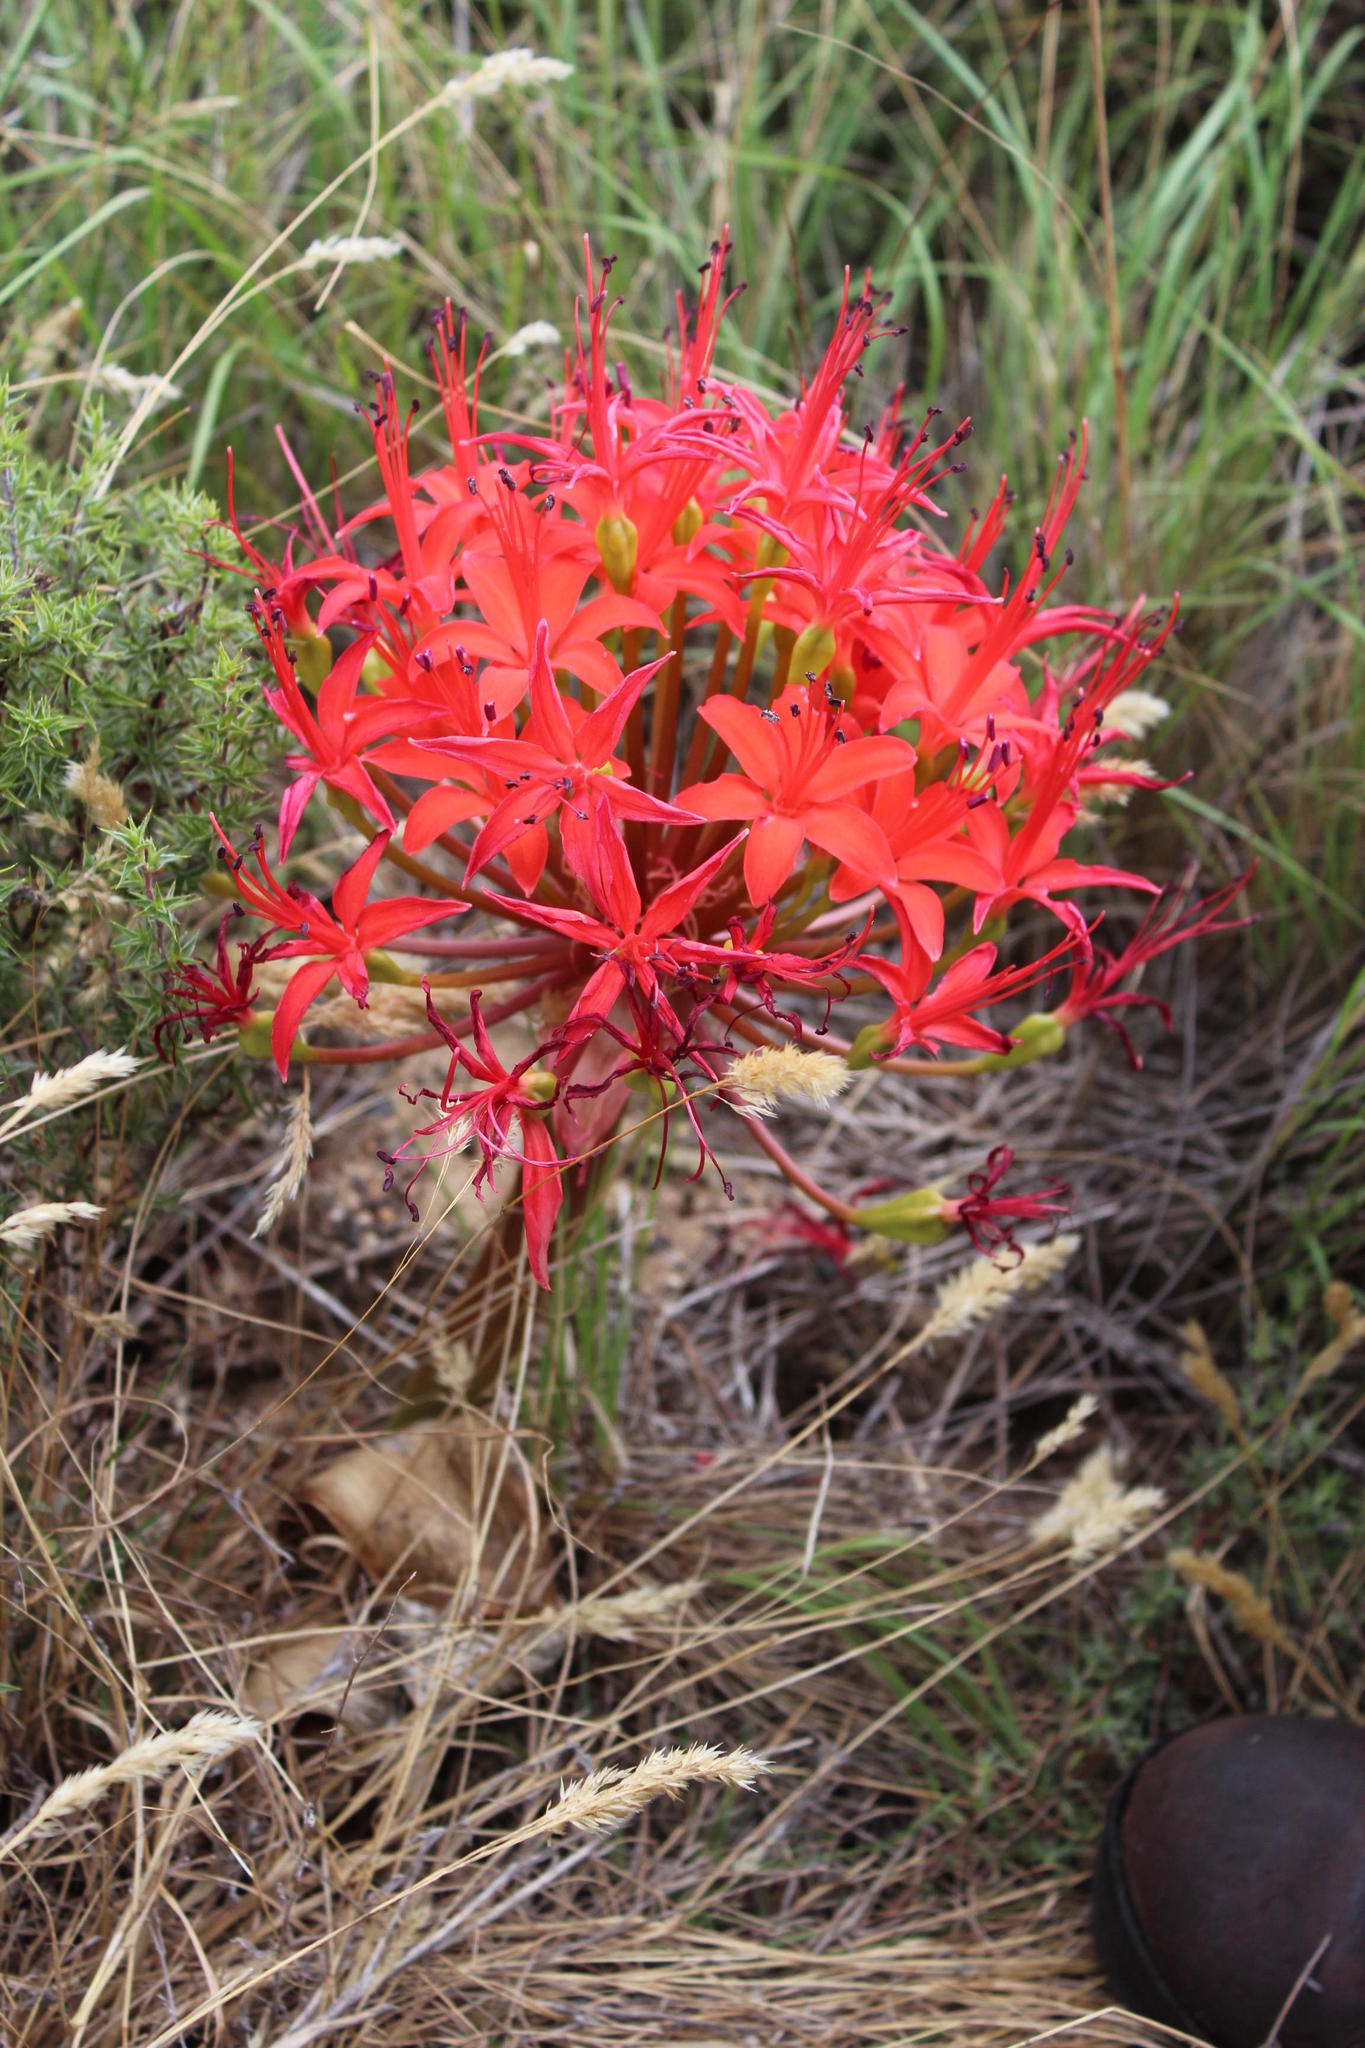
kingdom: Plantae
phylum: Tracheophyta
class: Liliopsida
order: Asparagales
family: Amaryllidaceae
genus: Brunsvigia
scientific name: Brunsvigia marginata
